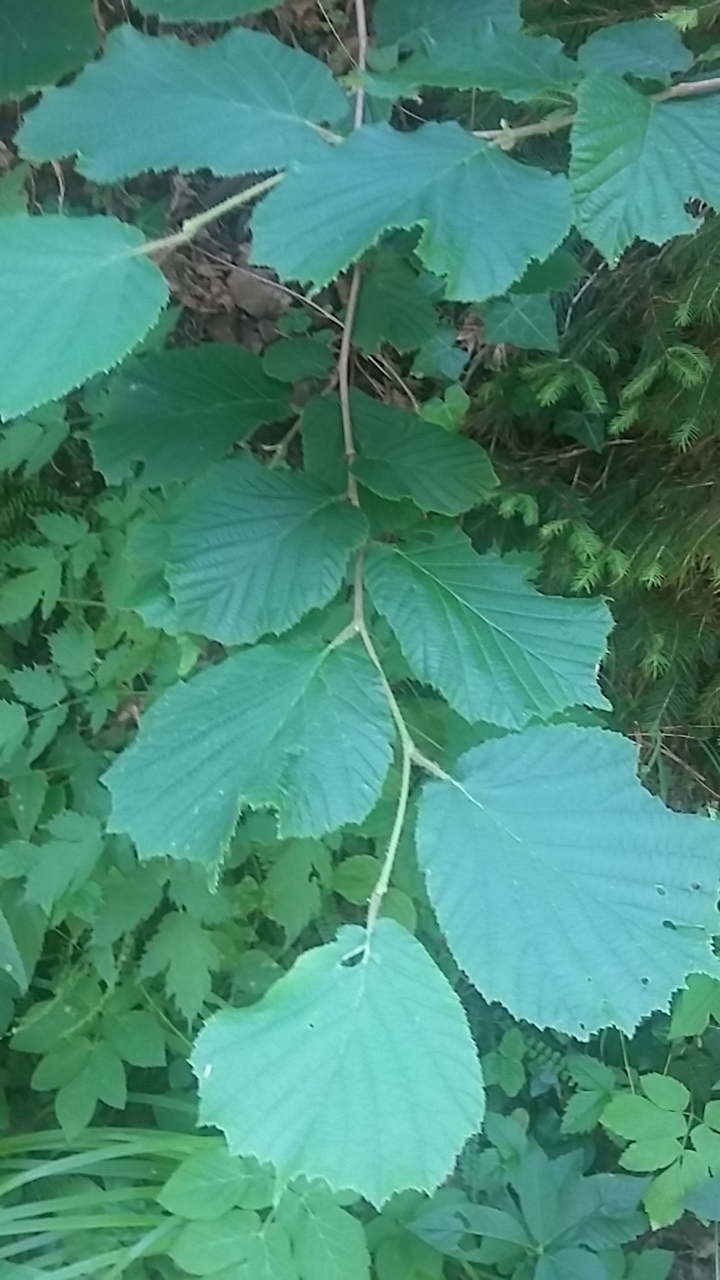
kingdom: Plantae
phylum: Tracheophyta
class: Magnoliopsida
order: Fagales
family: Betulaceae
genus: Corylus
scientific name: Corylus avellana
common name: European hazel
